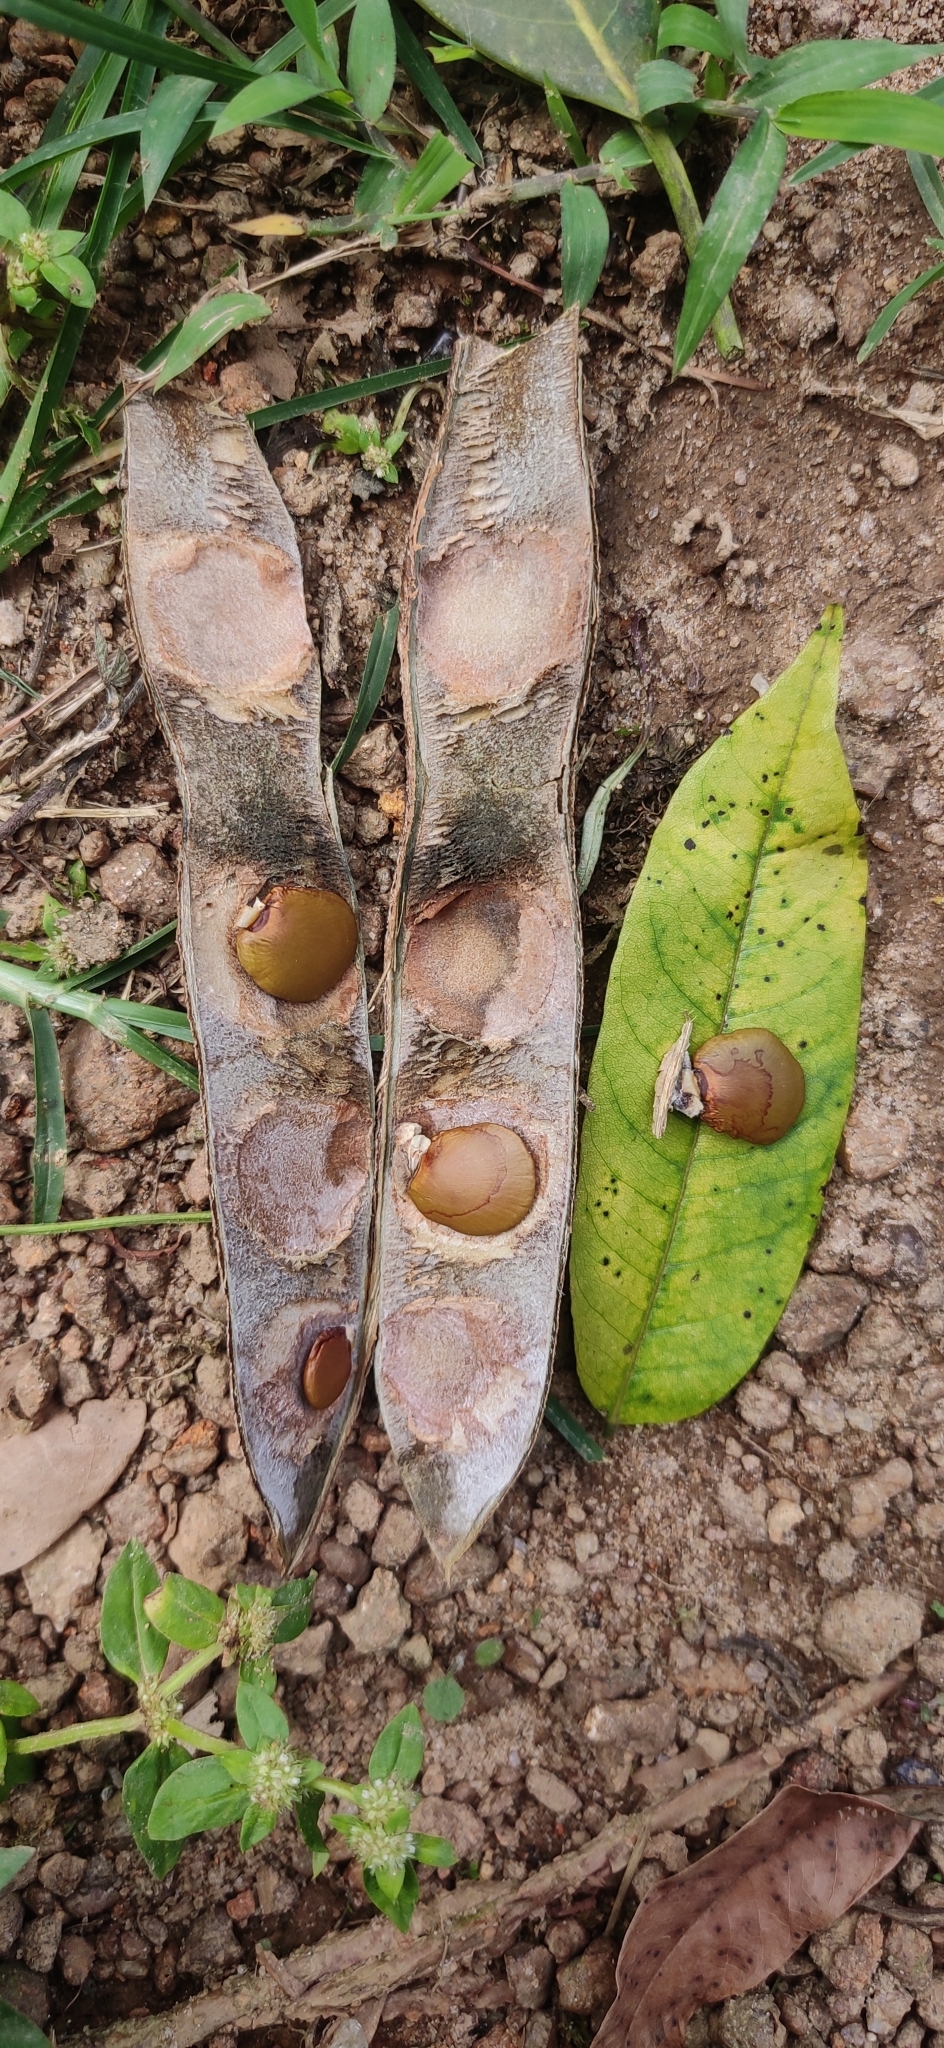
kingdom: Plantae
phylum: Tracheophyta
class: Magnoliopsida
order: Fabales
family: Fabaceae
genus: Gliricidia
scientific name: Gliricidia sepium
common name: Quickstick
